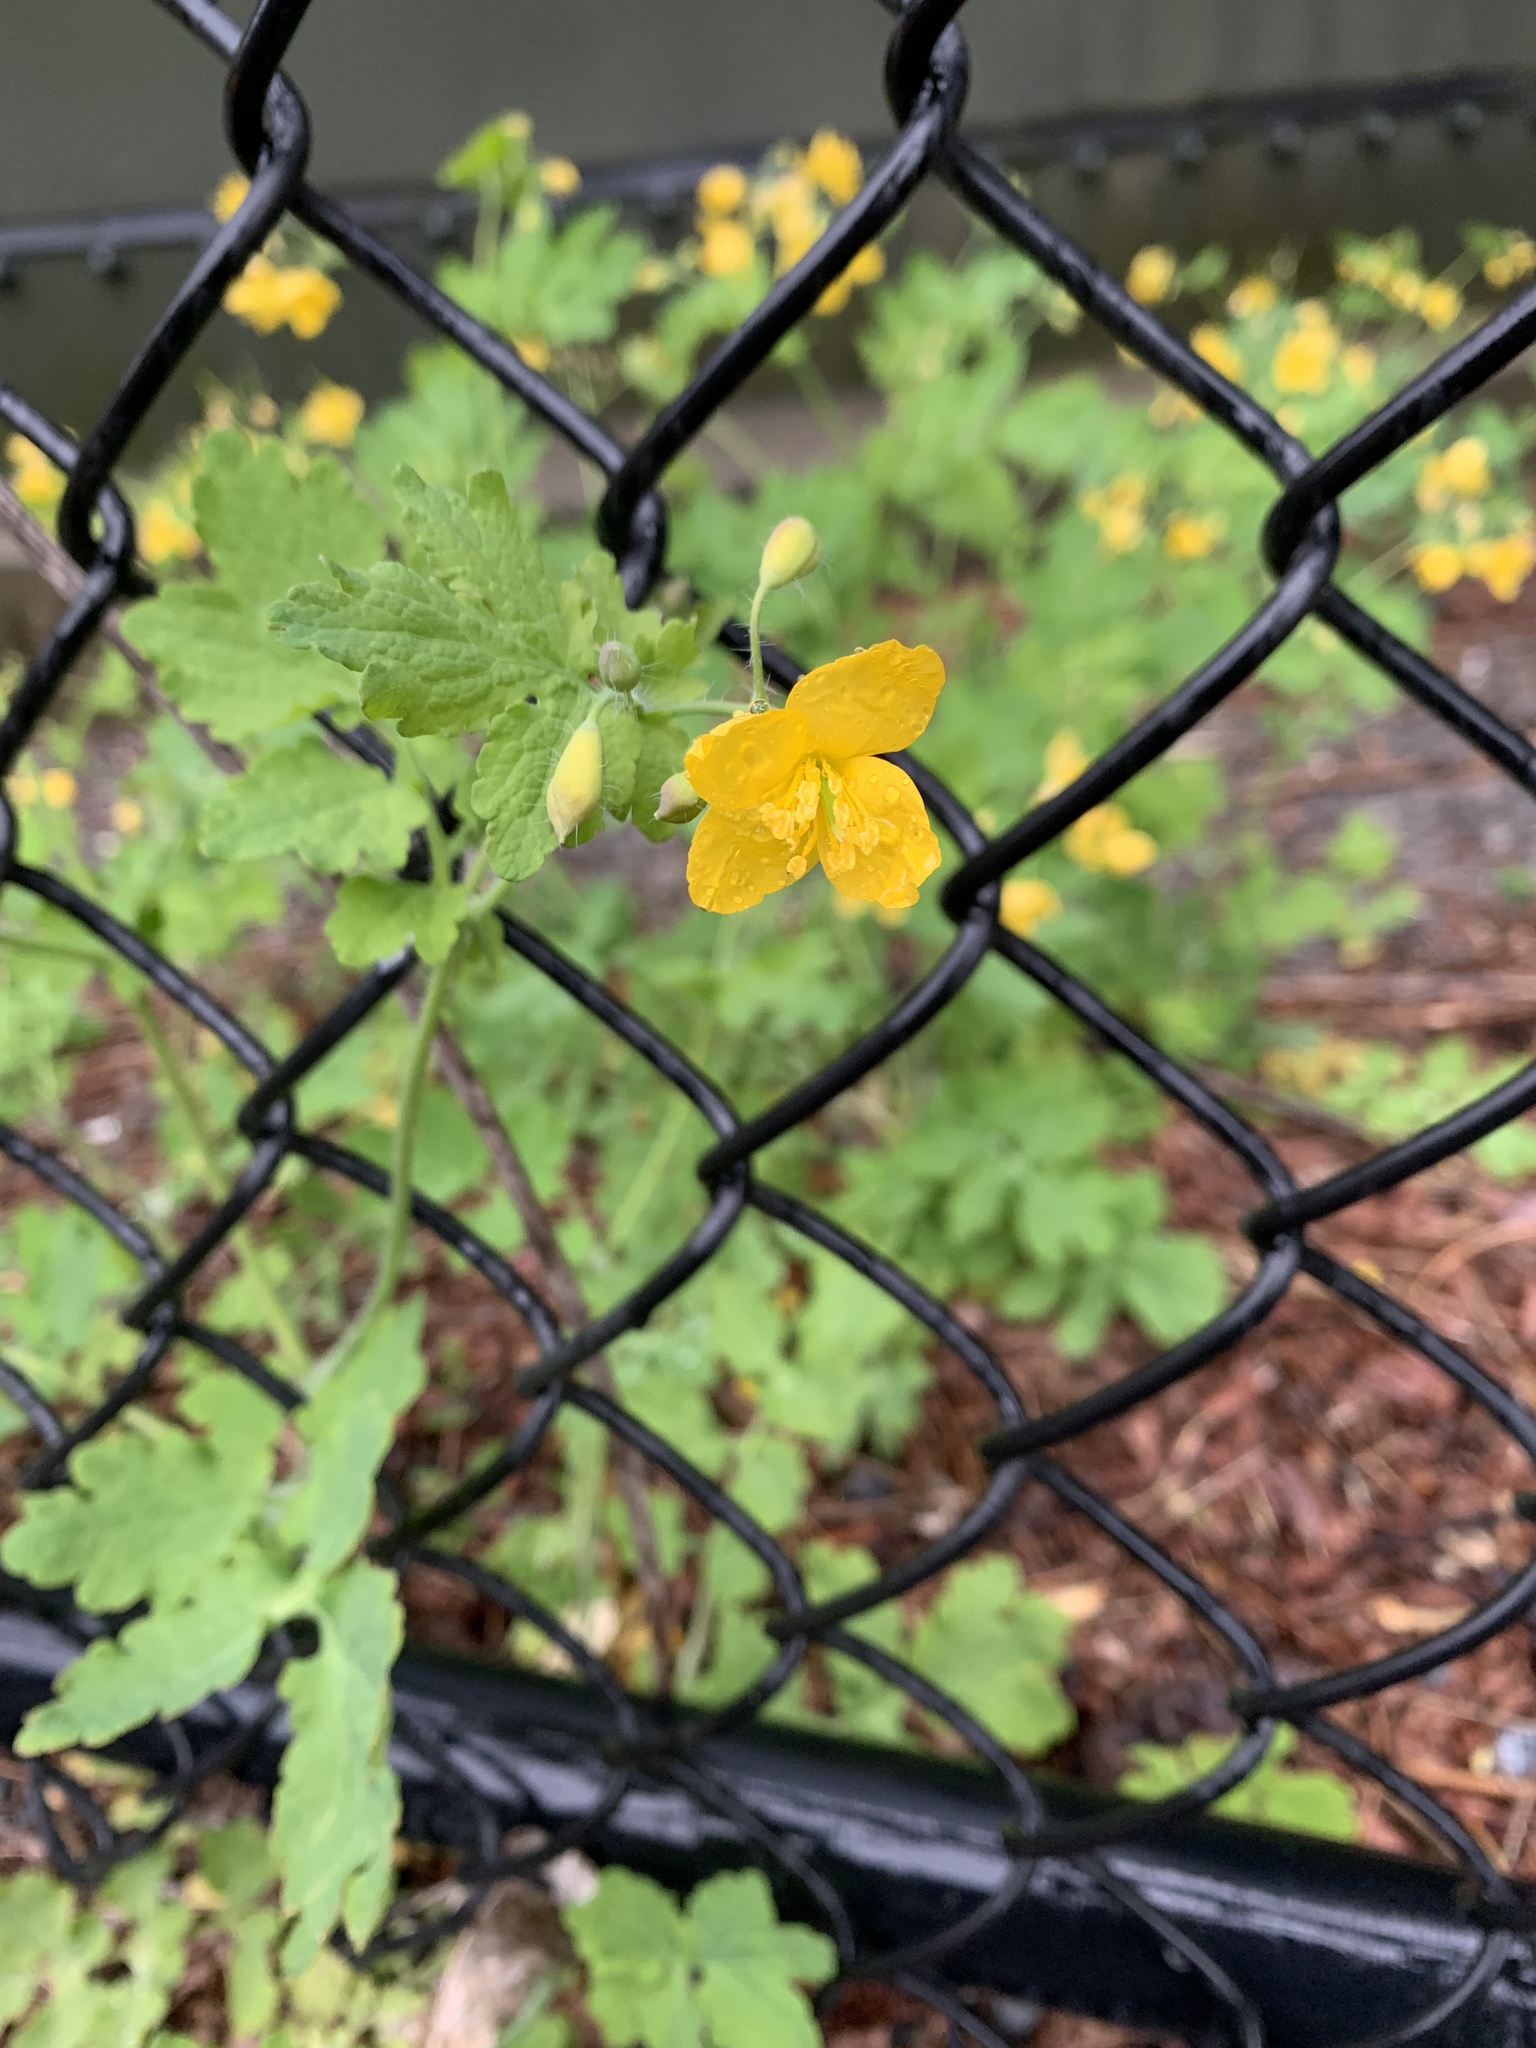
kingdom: Plantae
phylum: Tracheophyta
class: Magnoliopsida
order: Ranunculales
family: Papaveraceae
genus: Chelidonium
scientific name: Chelidonium majus
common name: Greater celandine
